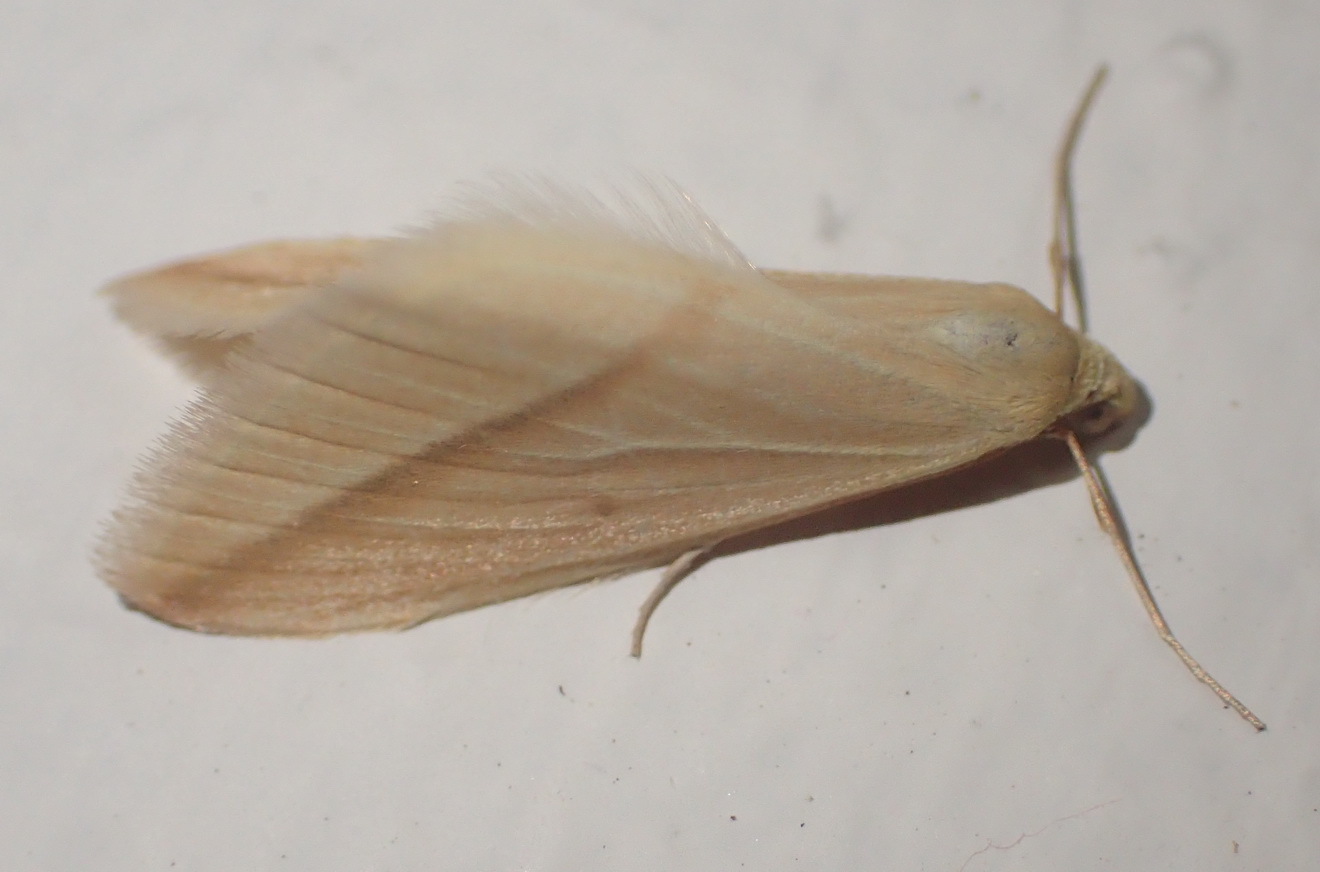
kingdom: Animalia
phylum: Arthropoda
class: Insecta
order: Lepidoptera
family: Geometridae
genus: Rhodometra
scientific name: Rhodometra sacraria
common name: Vestal
